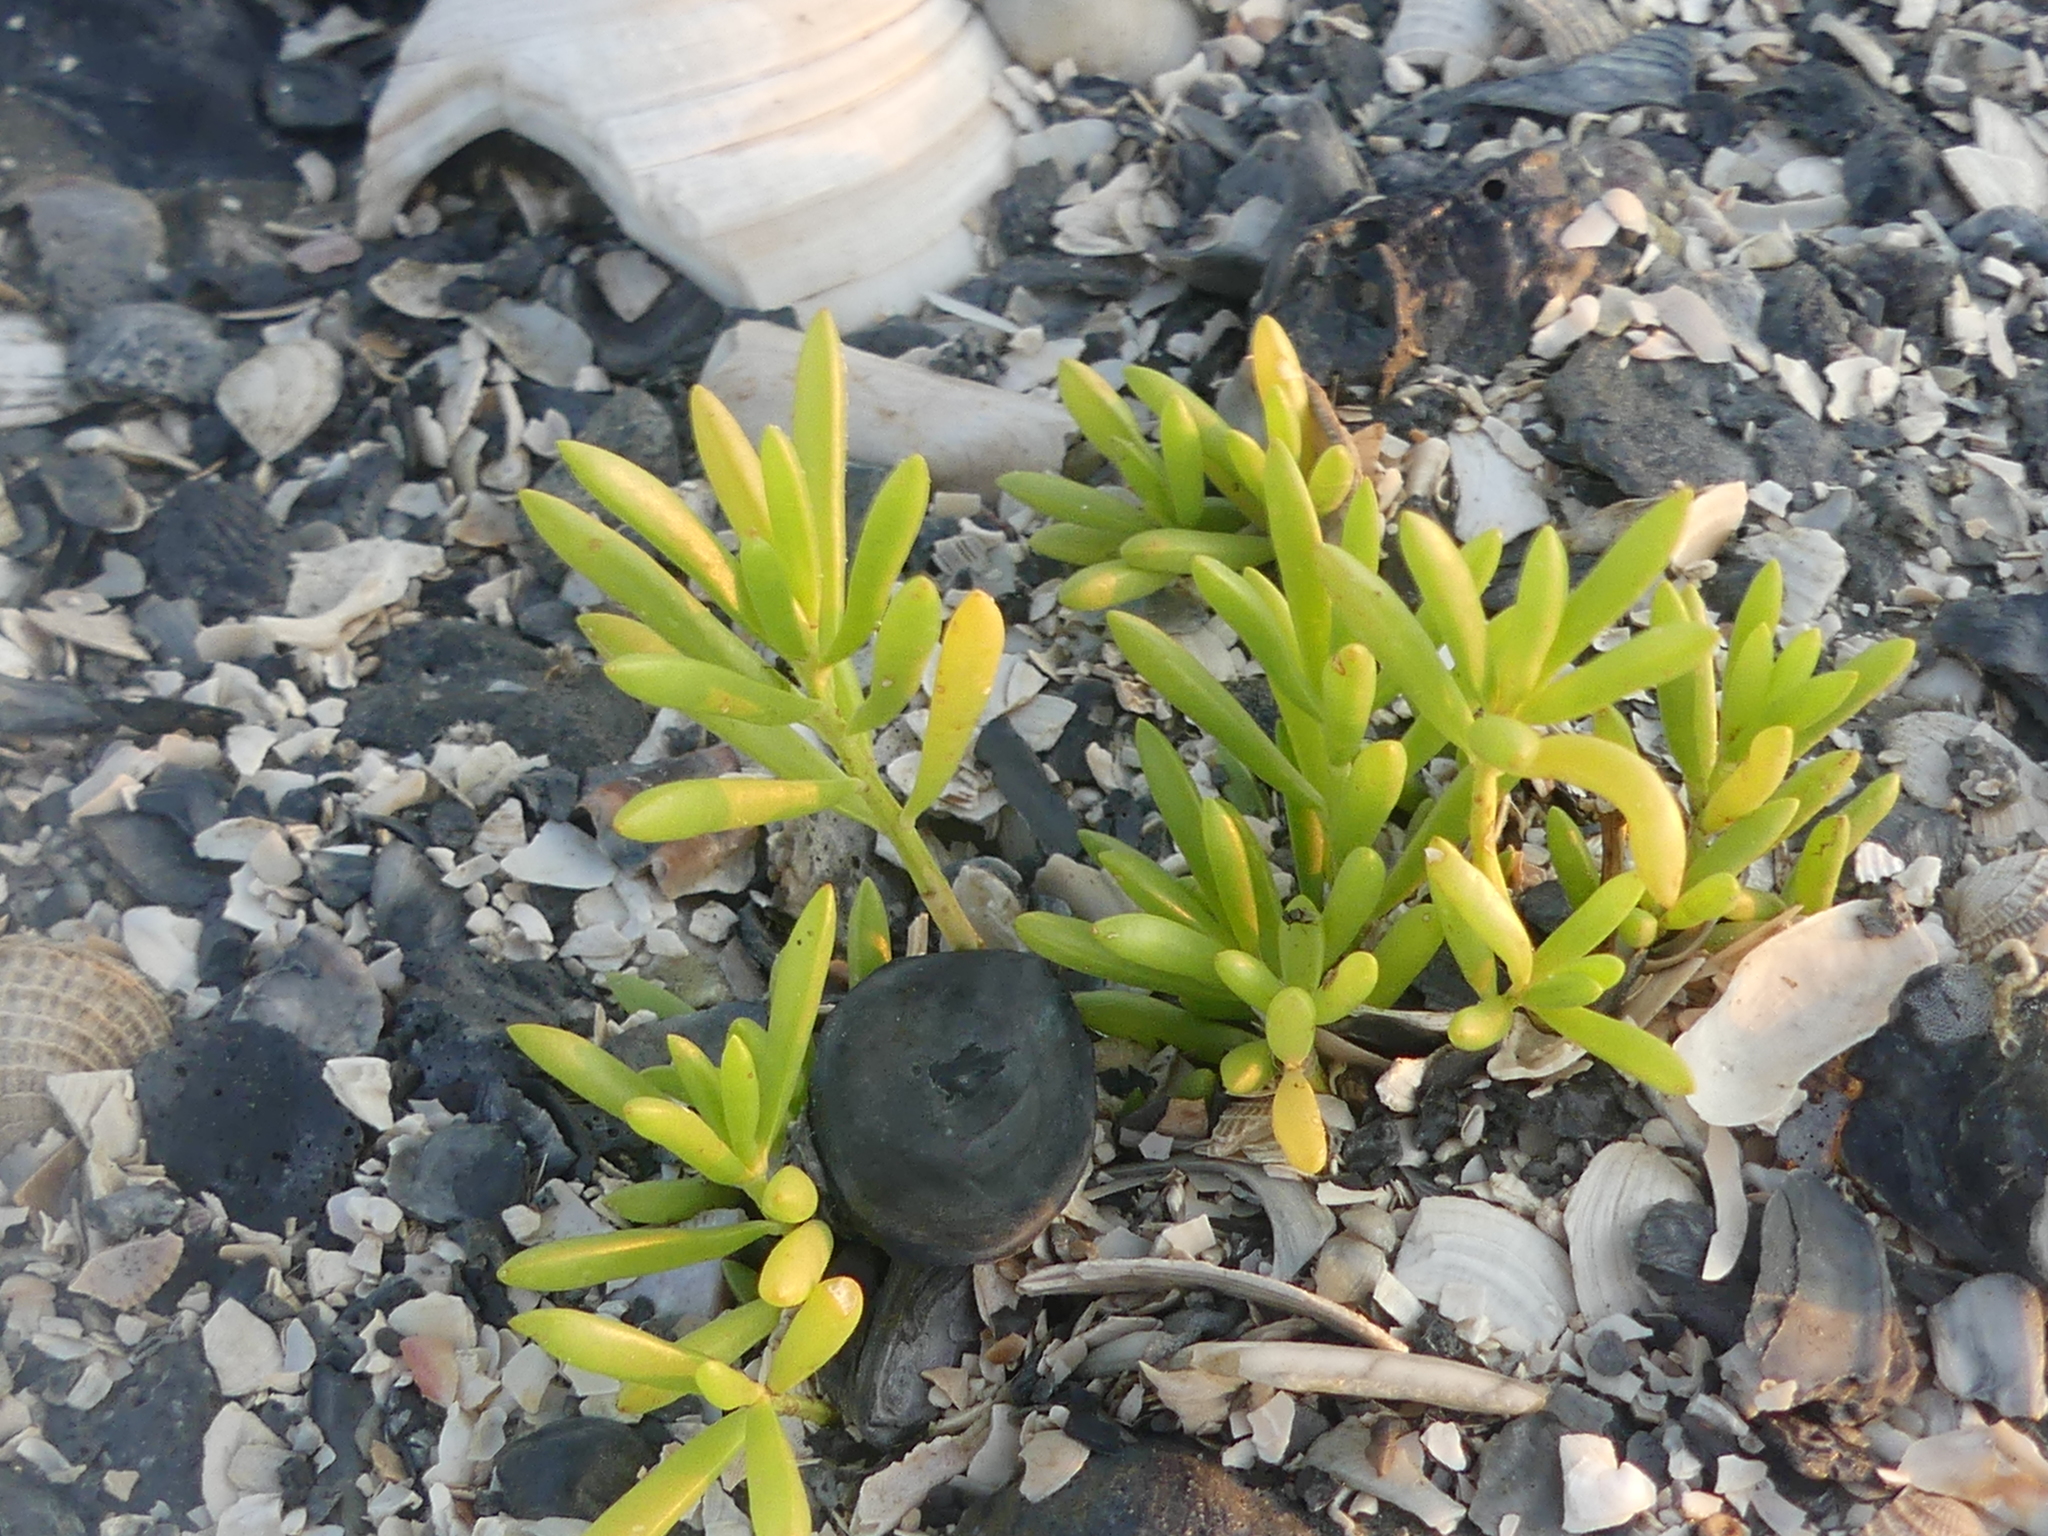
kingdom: Plantae
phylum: Tracheophyta
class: Magnoliopsida
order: Brassicales
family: Bataceae
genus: Batis
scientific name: Batis maritima
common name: Turtleweed
